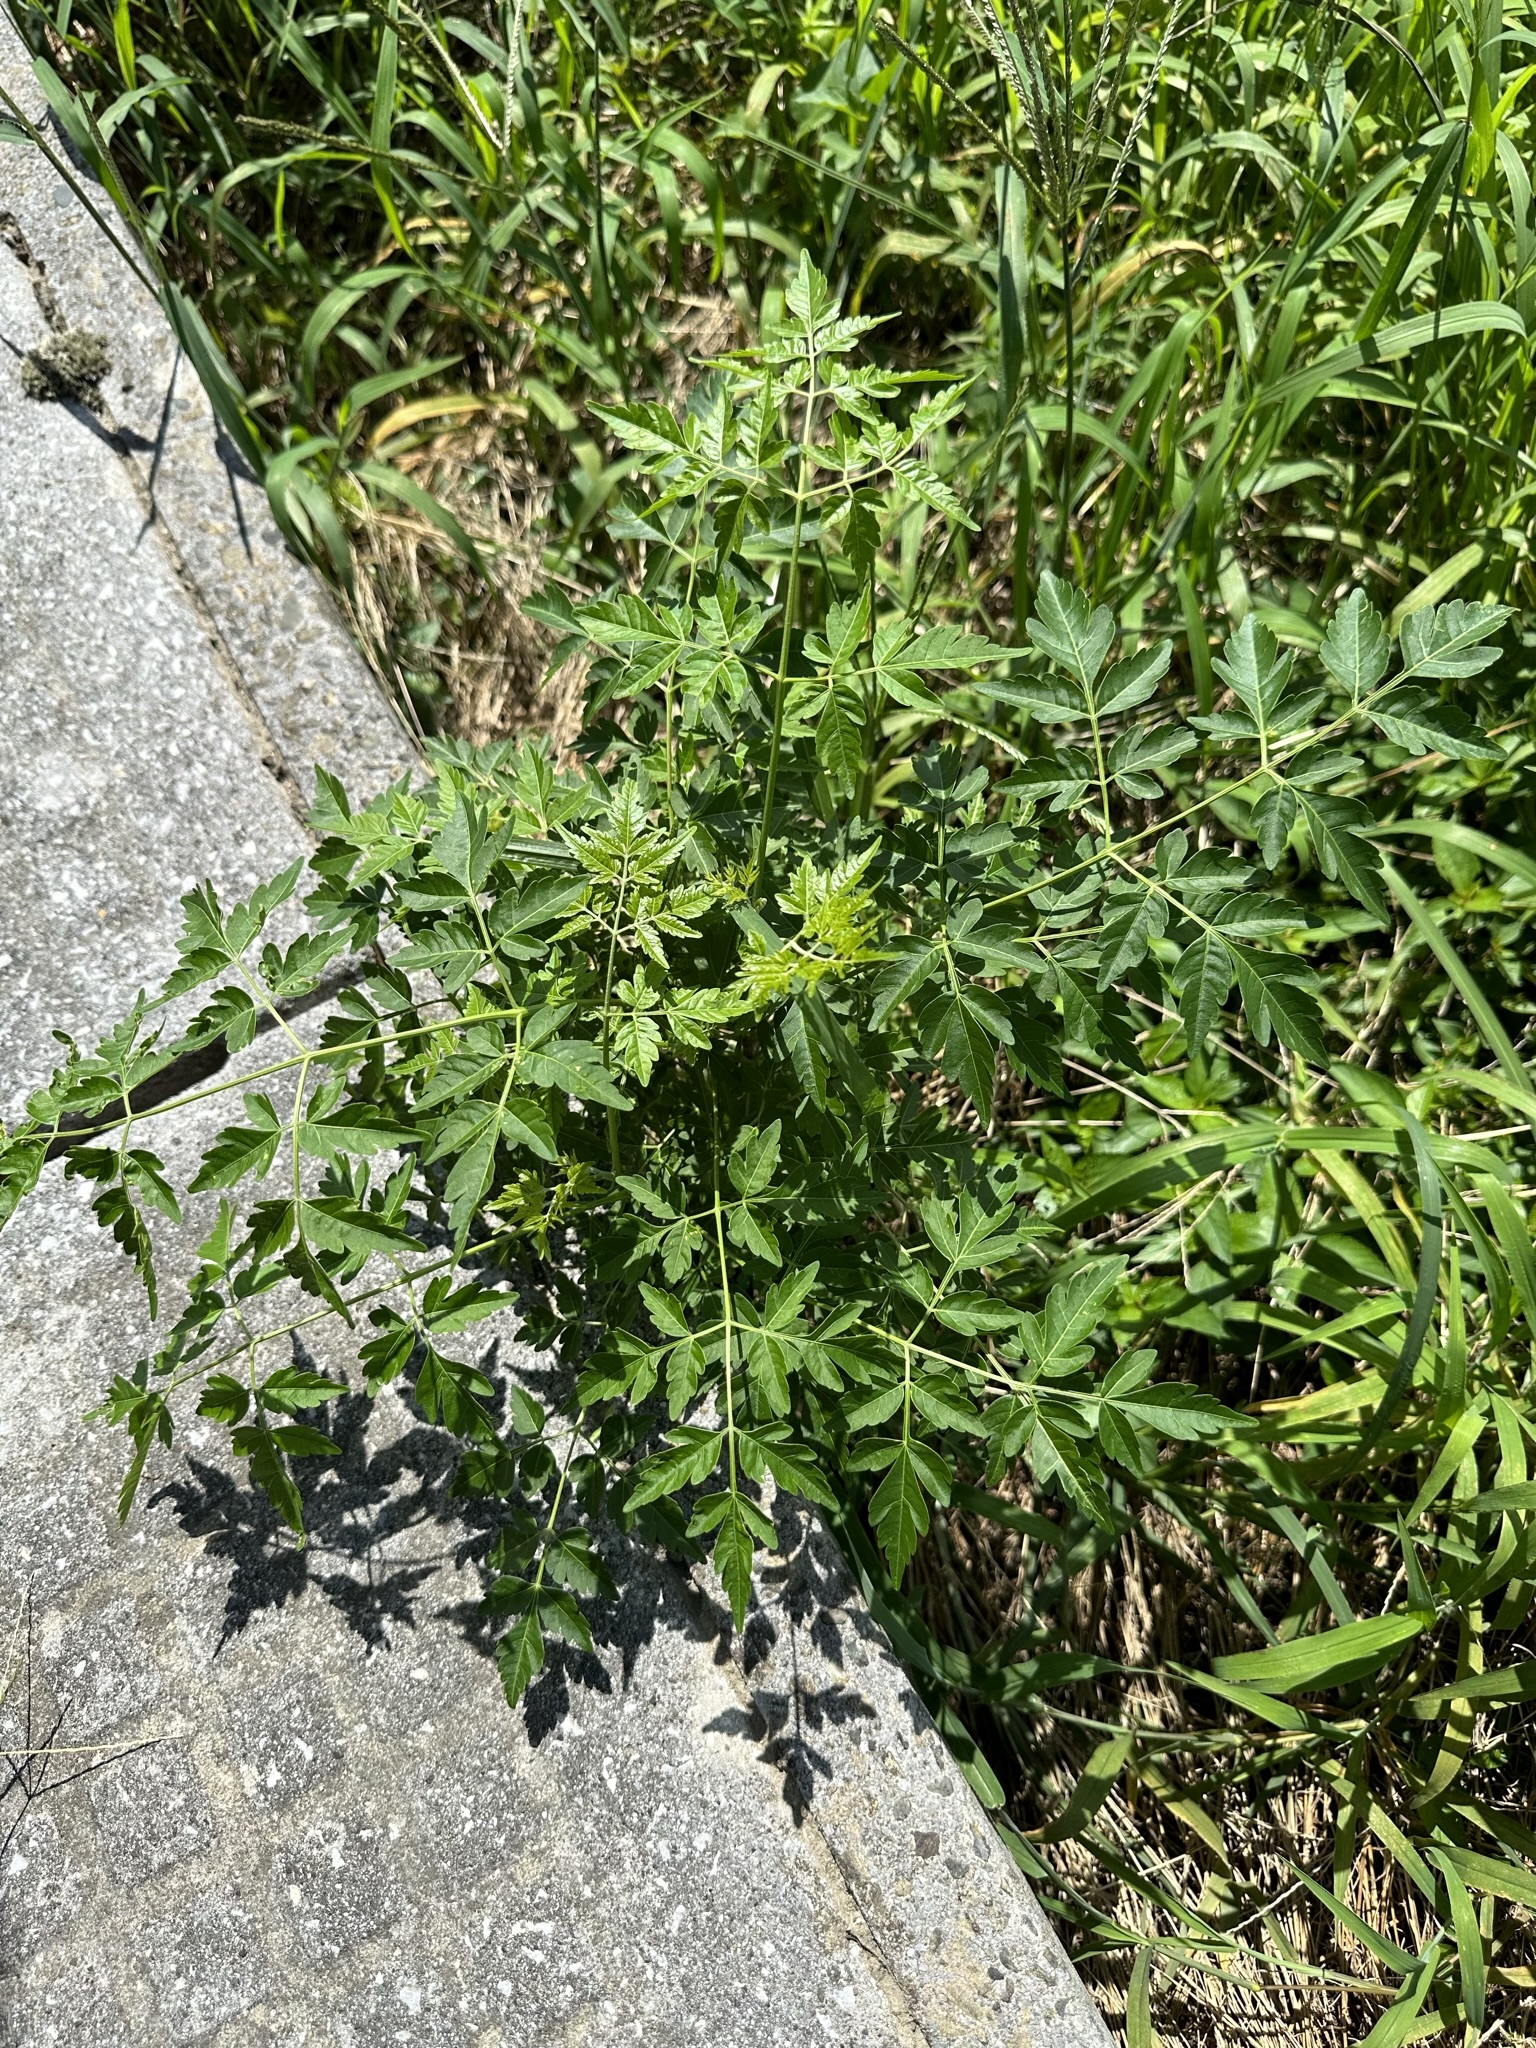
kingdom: Plantae
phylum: Tracheophyta
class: Magnoliopsida
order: Sapindales
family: Meliaceae
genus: Melia
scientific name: Melia azedarach
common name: Chinaberrytree
